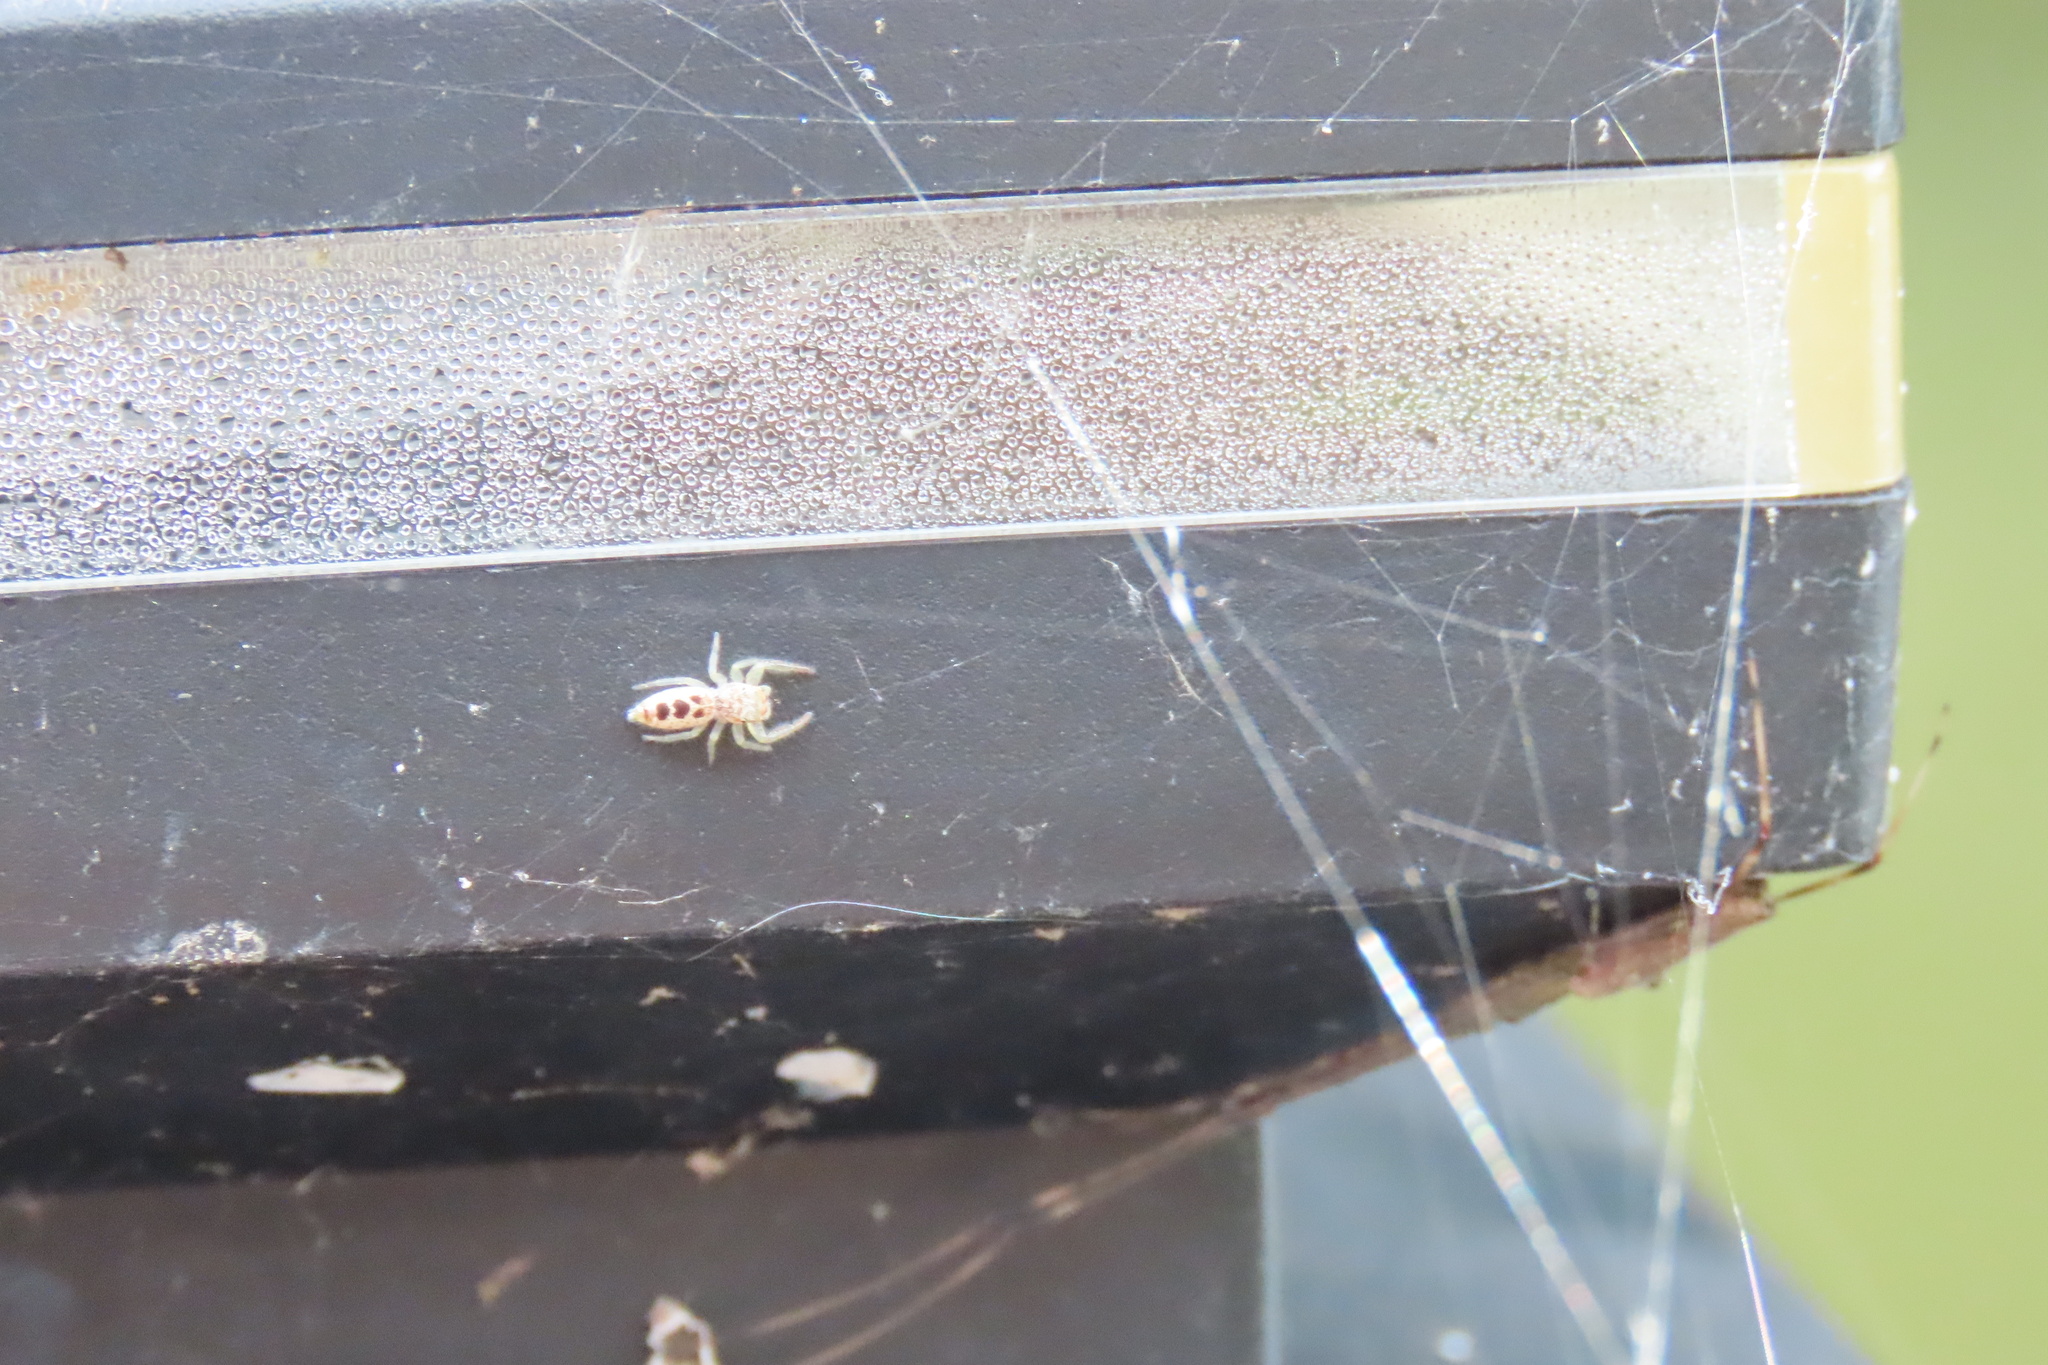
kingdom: Animalia
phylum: Arthropoda
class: Arachnida
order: Araneae
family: Salticidae
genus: Hentzia
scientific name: Hentzia mitrata
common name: White-jawed jumping spider
